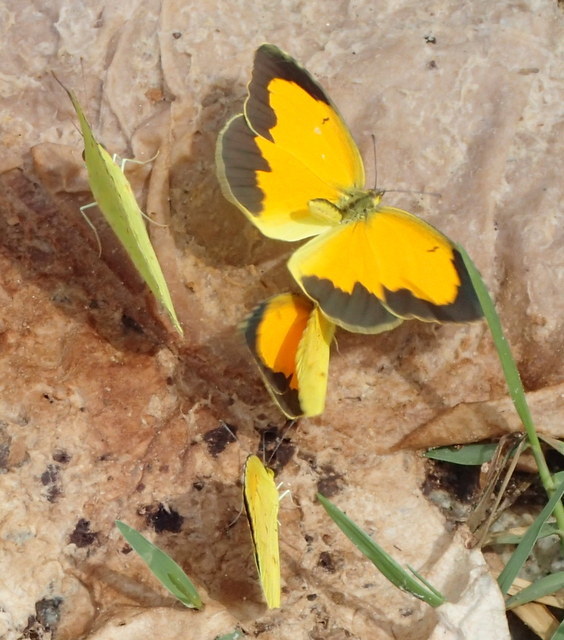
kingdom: Animalia
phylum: Arthropoda
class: Insecta
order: Lepidoptera
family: Pieridae
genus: Abaeis
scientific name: Abaeis nicippe
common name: Sleepy orange
